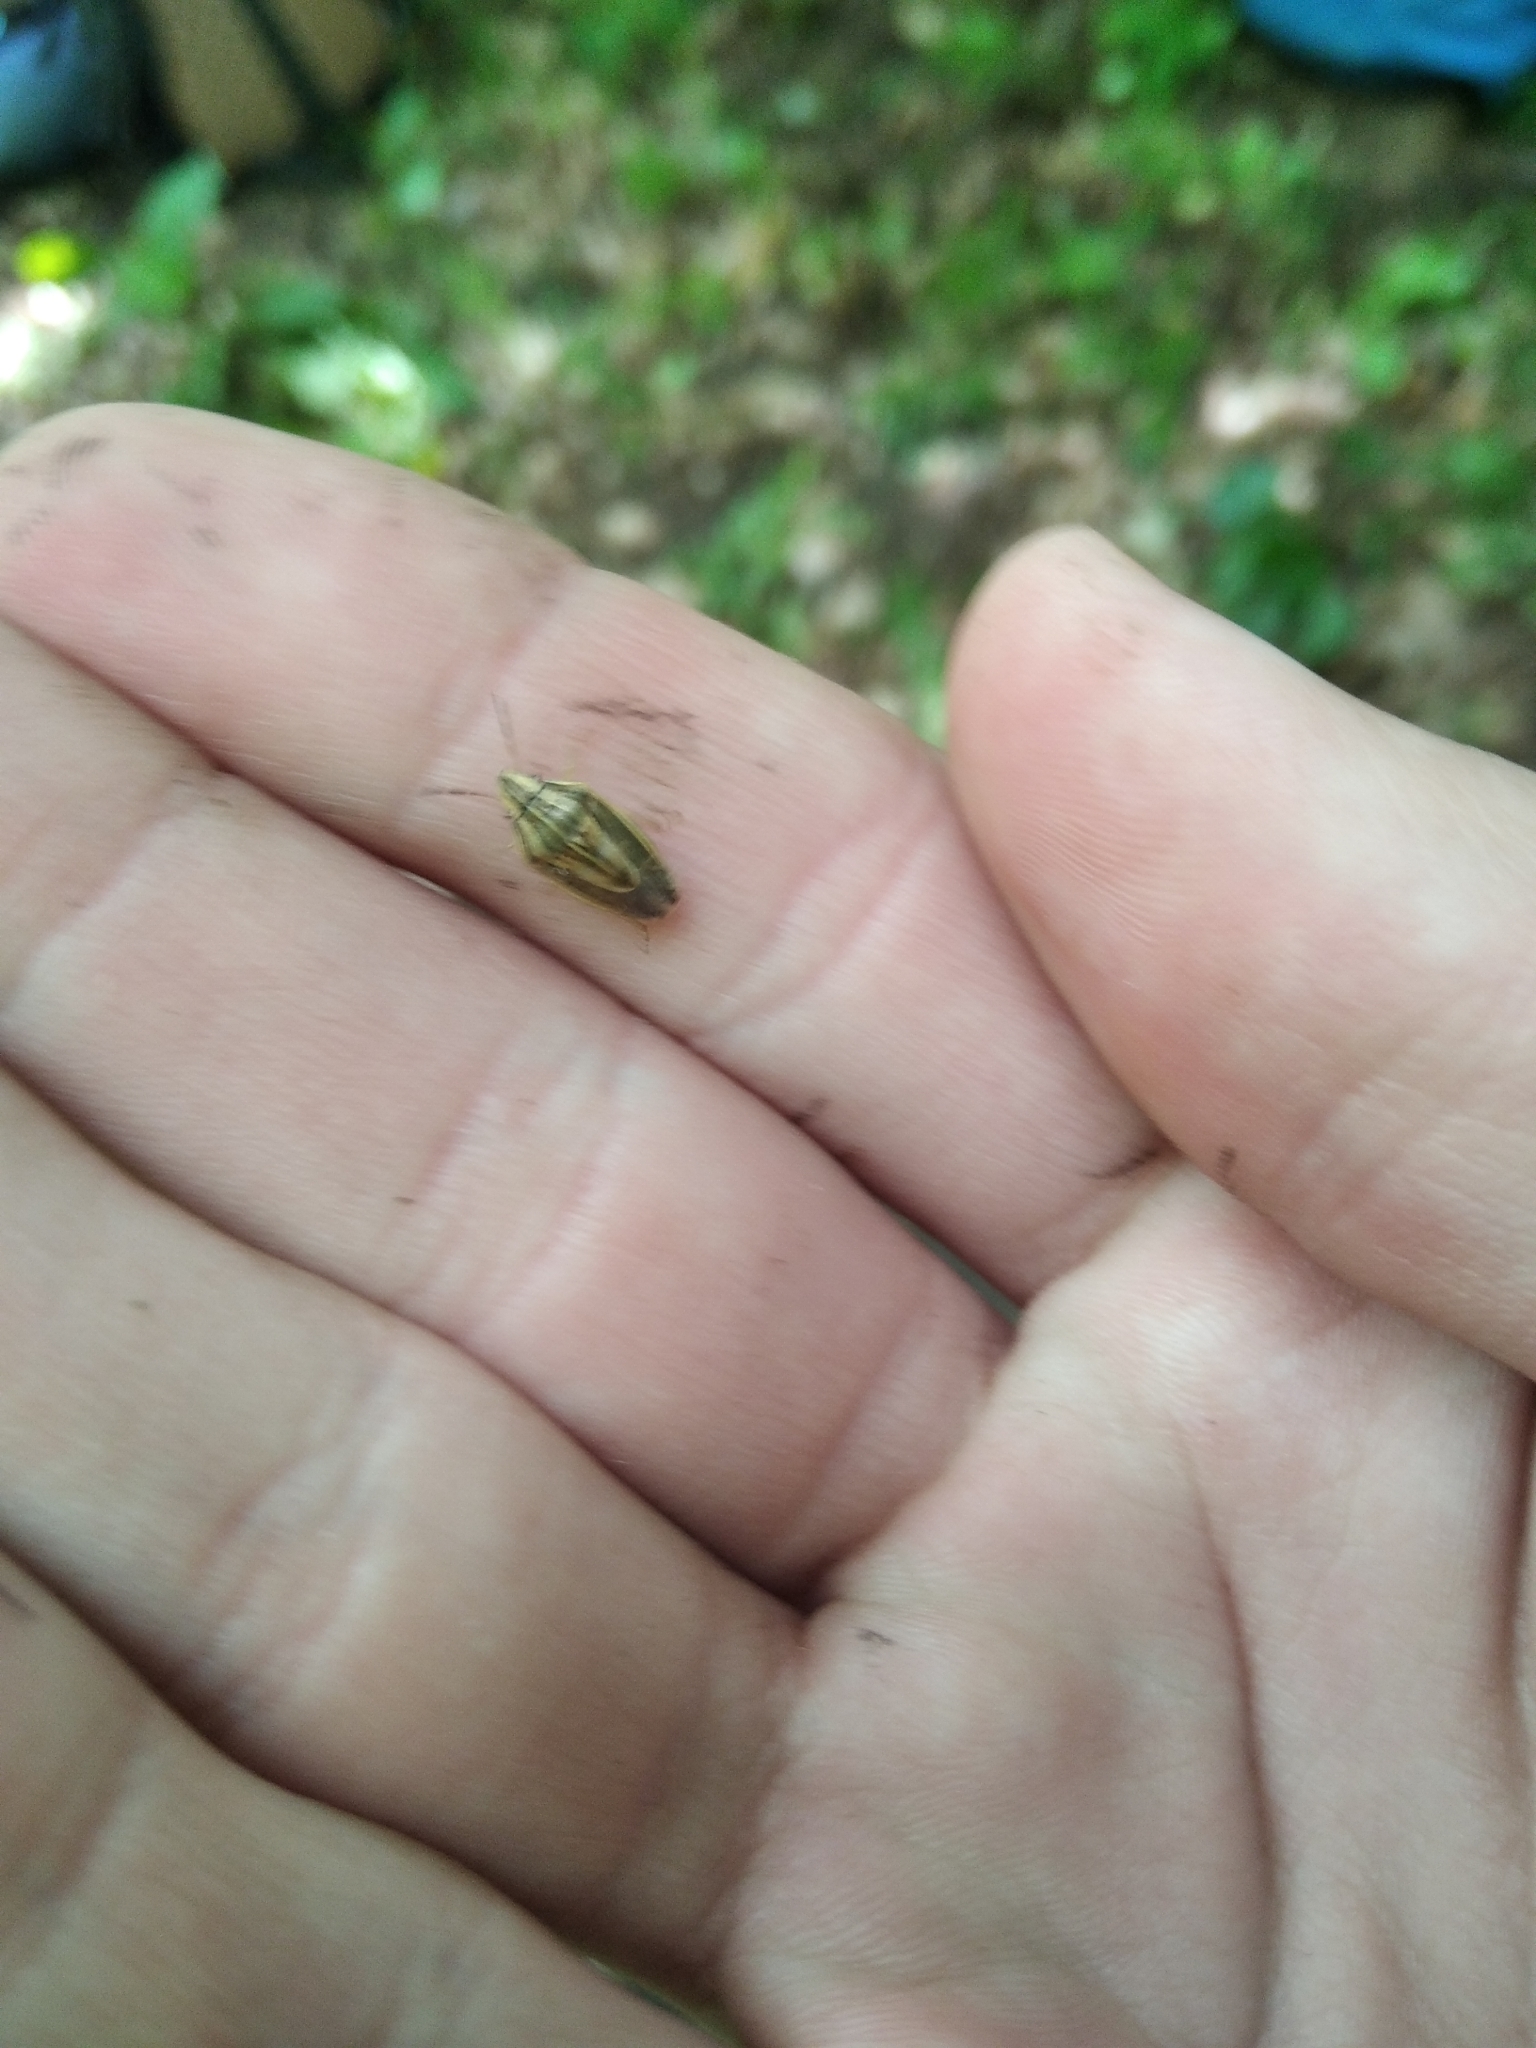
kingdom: Animalia
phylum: Arthropoda
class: Insecta
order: Hemiptera
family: Pentatomidae
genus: Aelia
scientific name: Aelia acuminata
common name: Bishop's mitre
